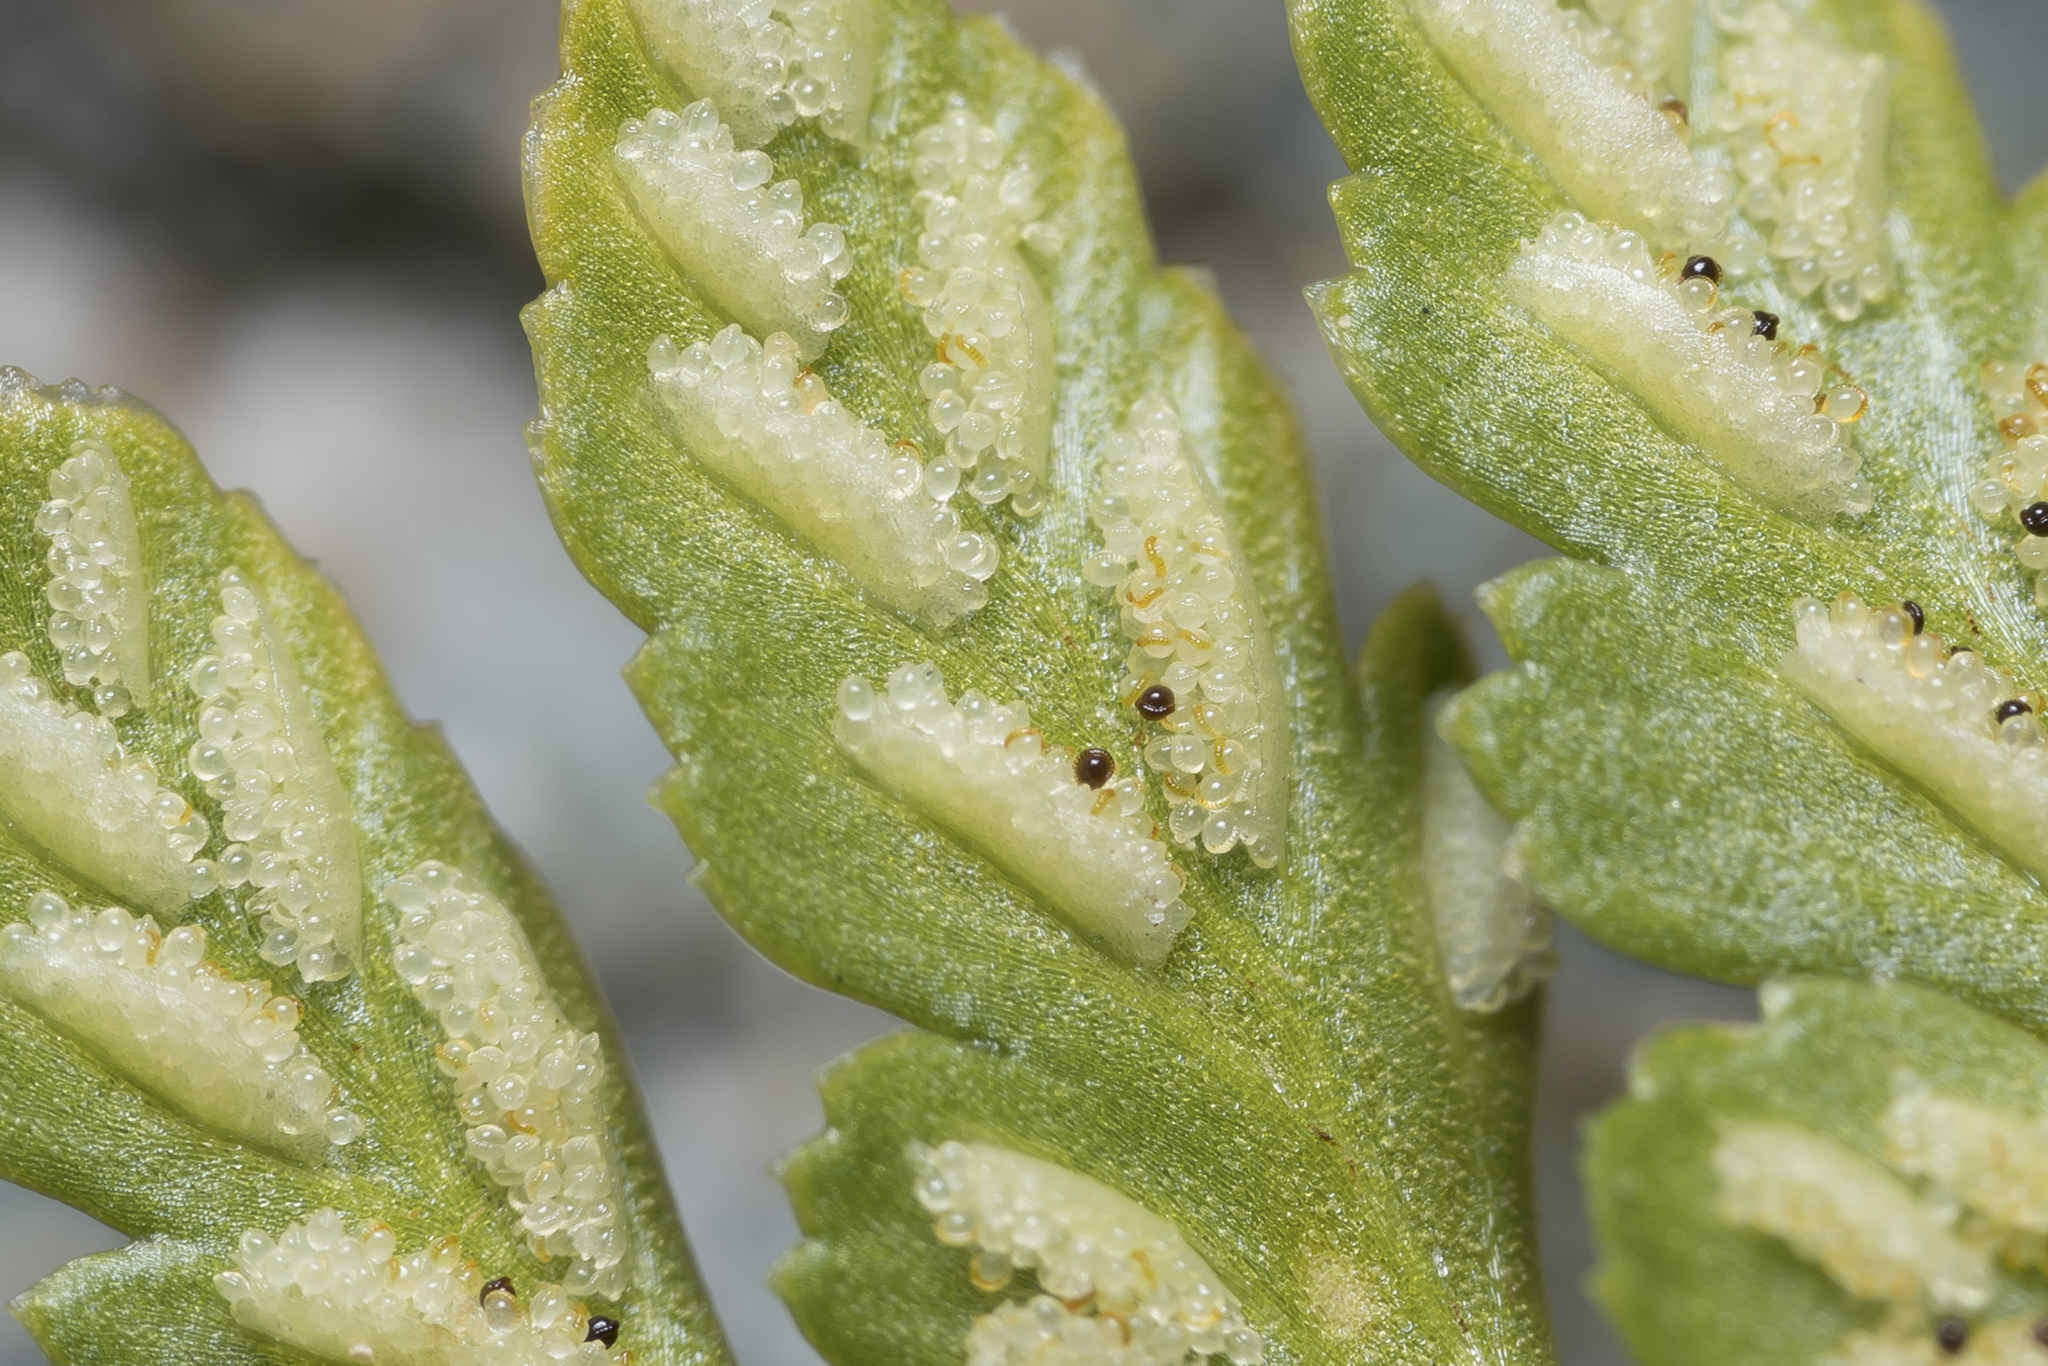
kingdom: Plantae
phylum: Tracheophyta
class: Polypodiopsida
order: Polypodiales
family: Aspleniaceae
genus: Asplenium
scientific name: Asplenium adiantum-nigrum
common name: Black spleenwort
